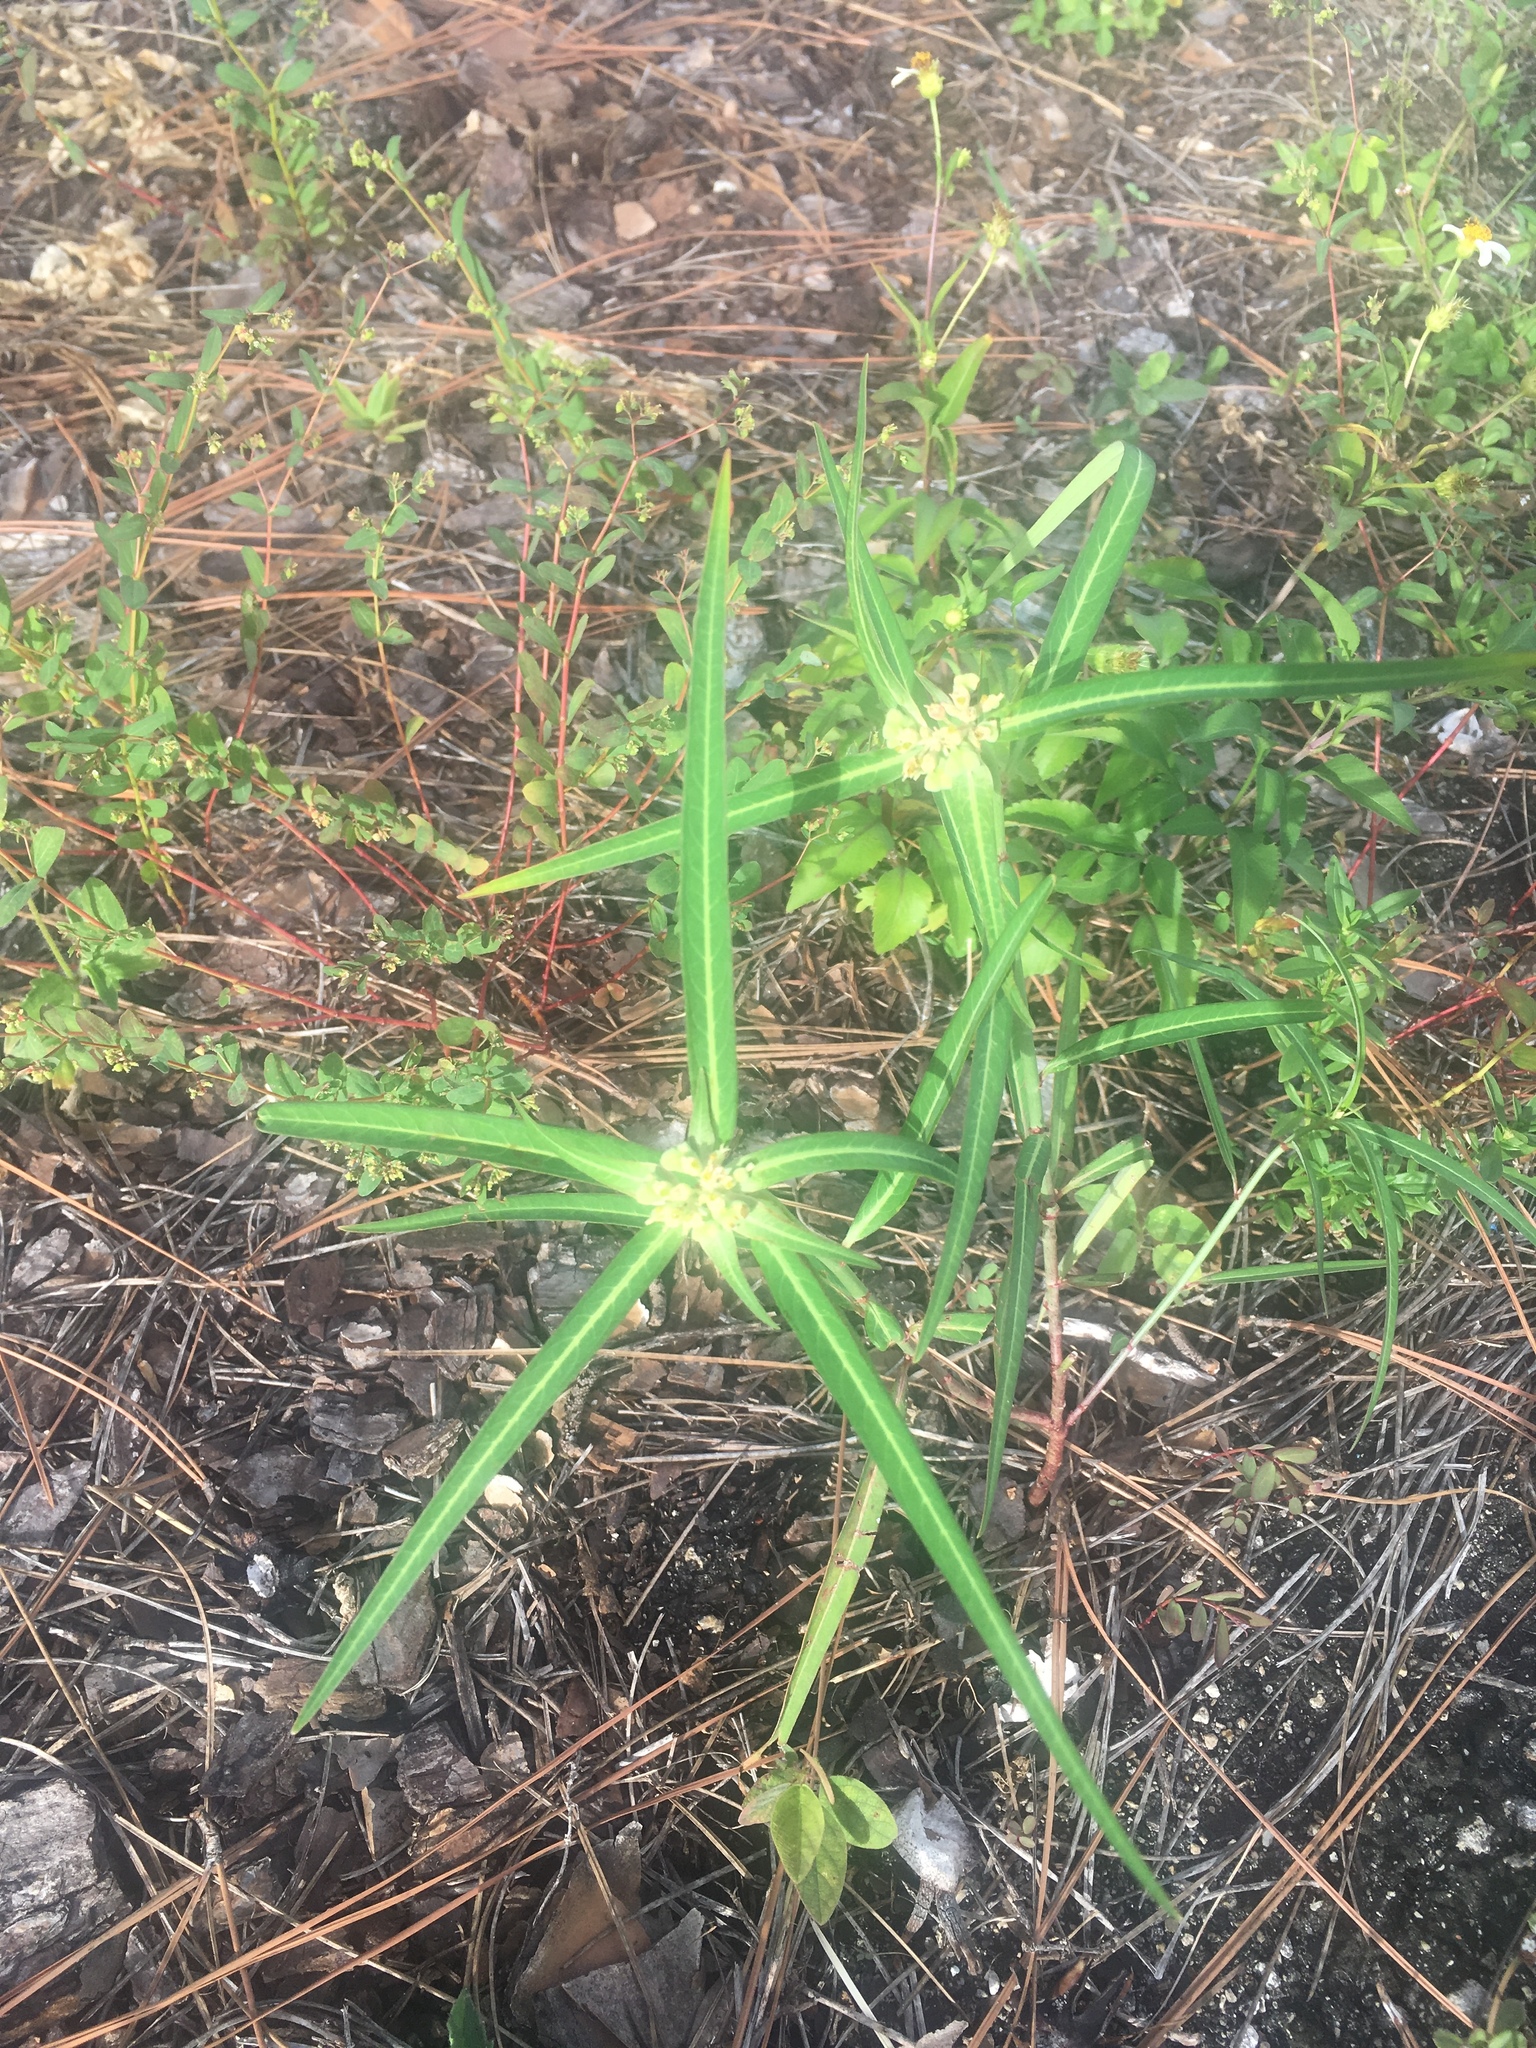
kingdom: Plantae
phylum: Tracheophyta
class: Magnoliopsida
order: Malpighiales
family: Euphorbiaceae
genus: Euphorbia
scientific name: Euphorbia heterophylla
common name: Mexican fireplant
